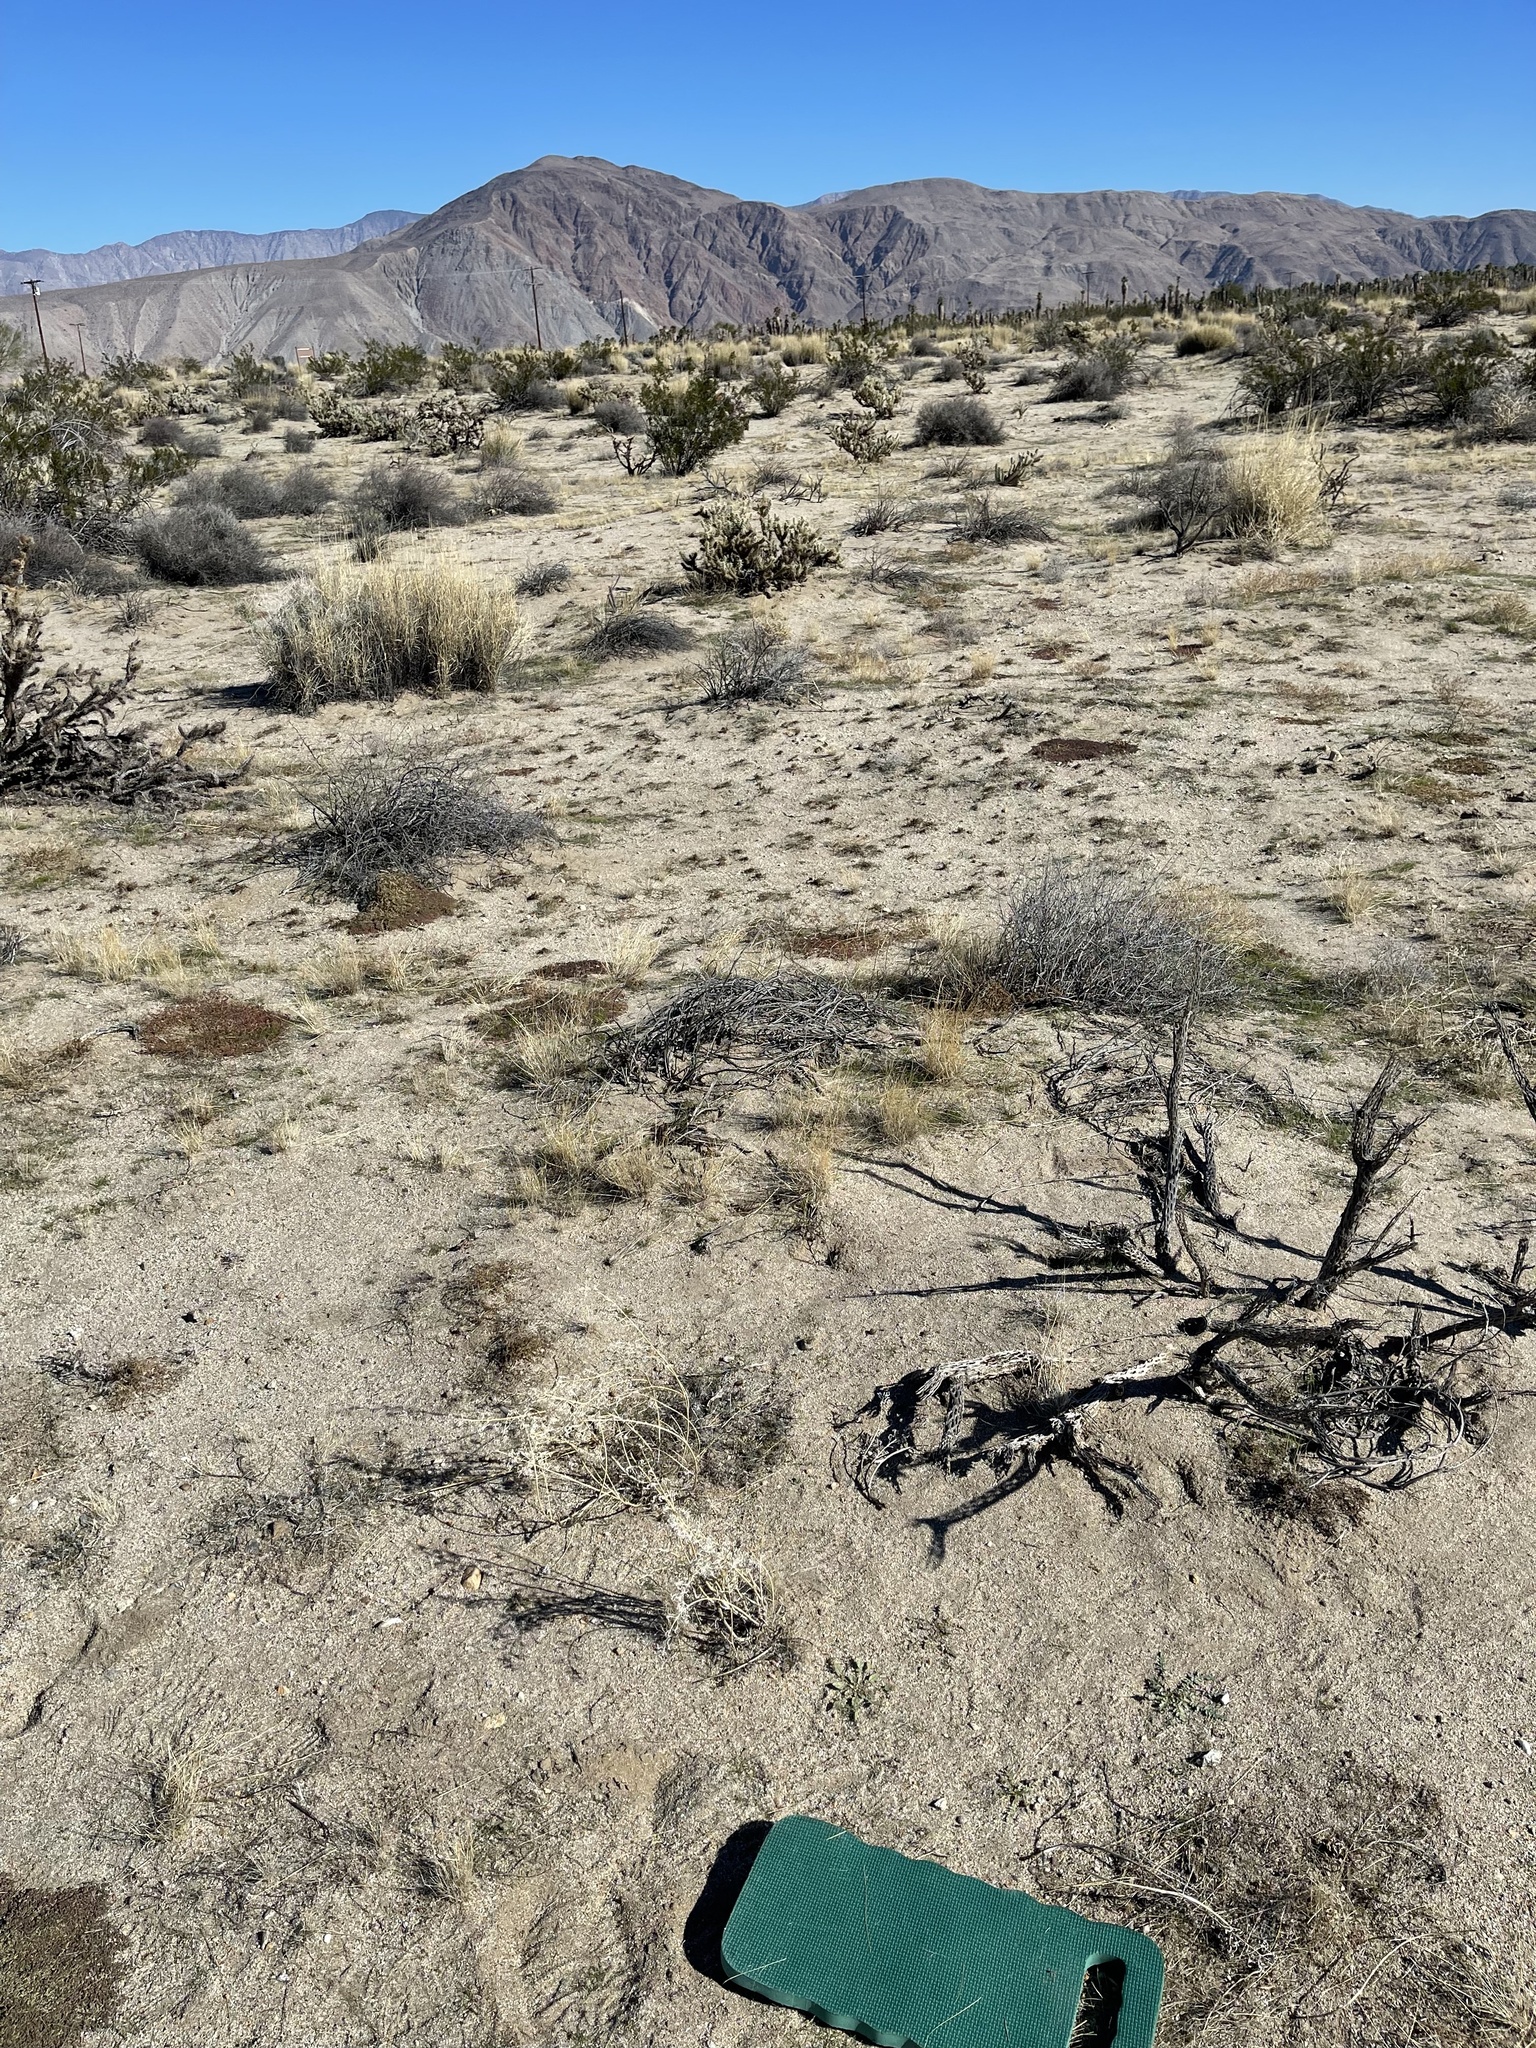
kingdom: Plantae
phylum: Tracheophyta
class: Magnoliopsida
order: Myrtales
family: Onagraceae
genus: Chylismia
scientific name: Chylismia claviformis
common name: Browneyes
